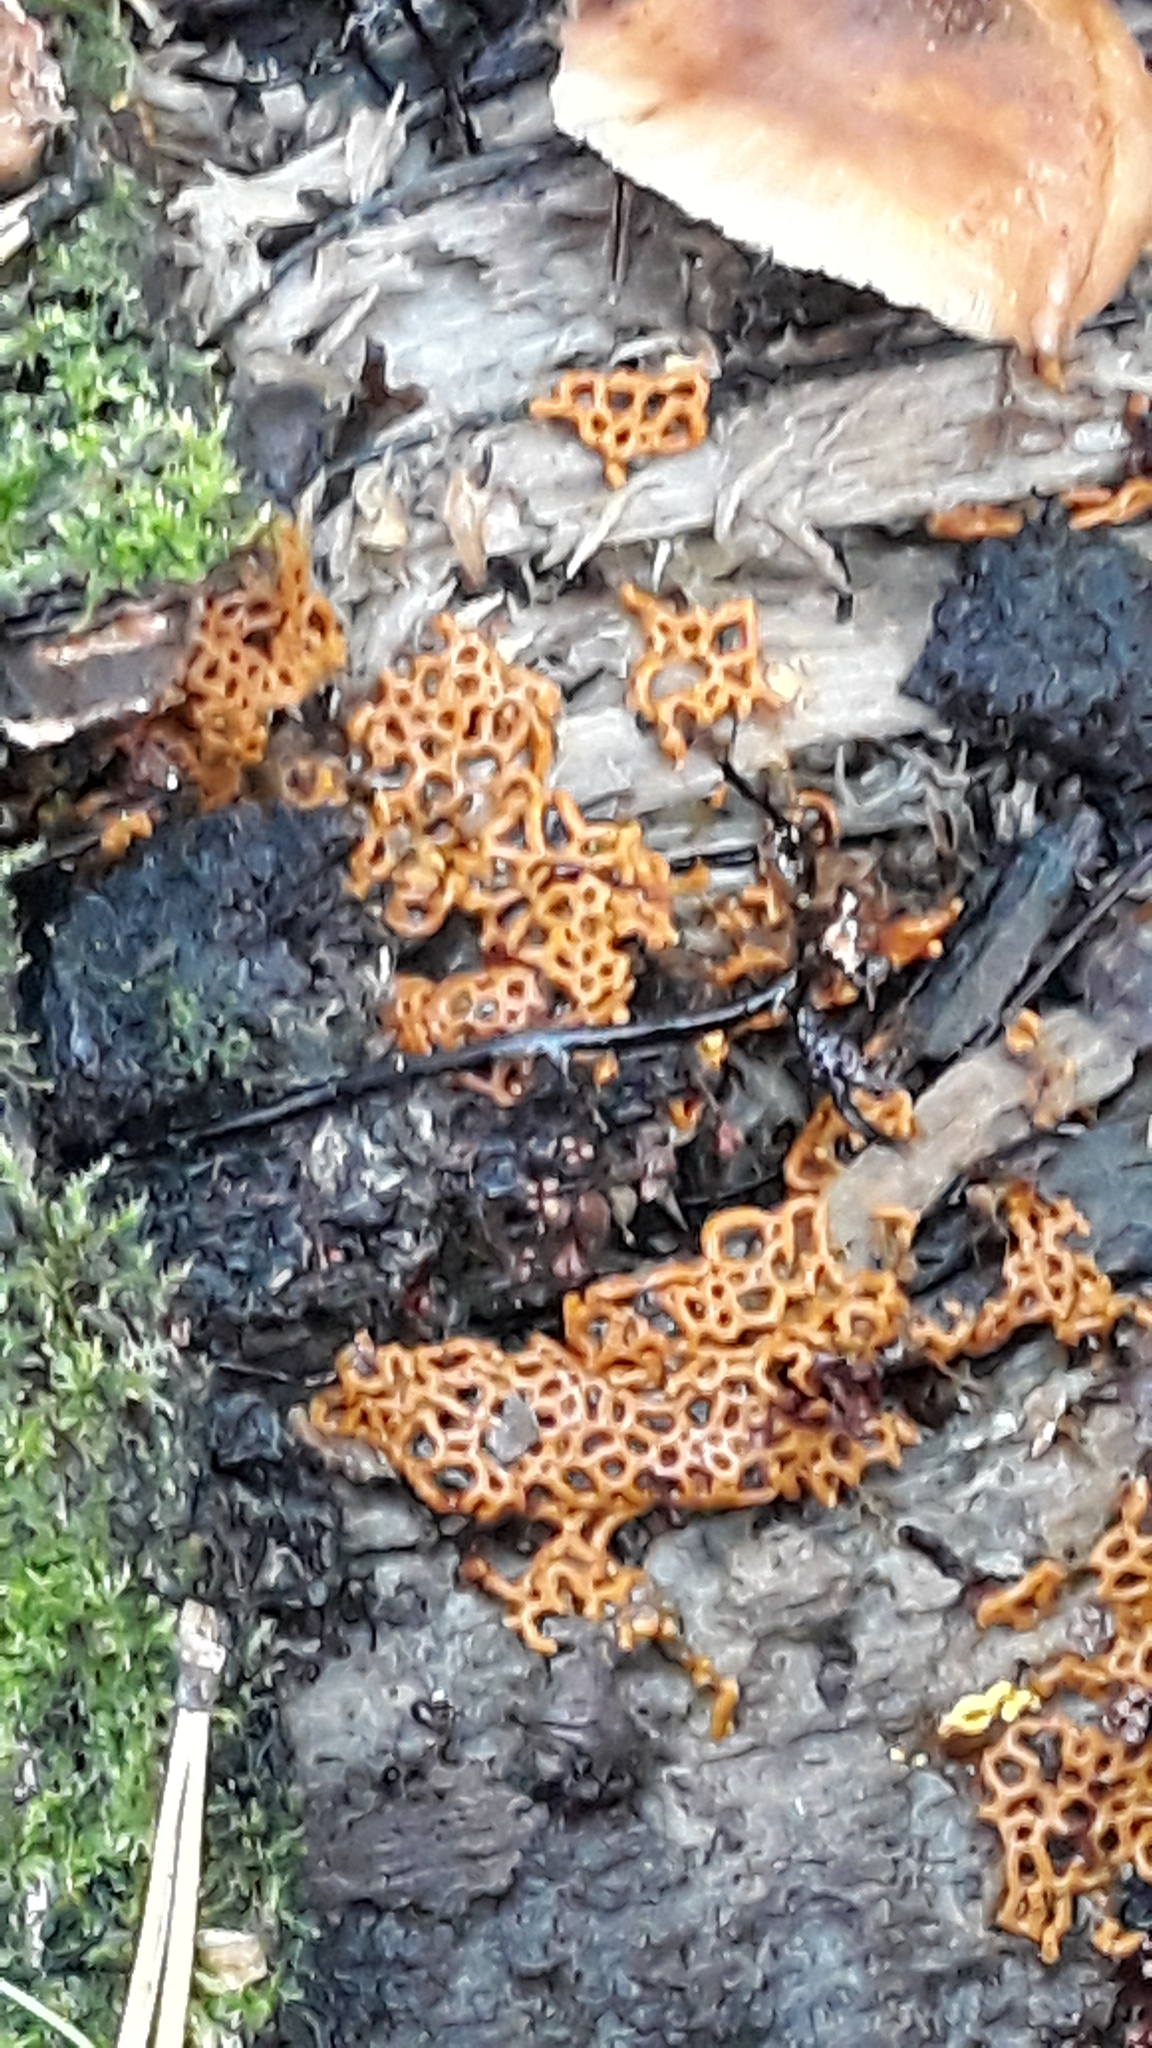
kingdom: Protozoa
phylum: Mycetozoa
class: Myxomycetes
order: Trichiales
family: Arcyriaceae
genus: Hemitrichia
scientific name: Hemitrichia serpula
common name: Pretzel slime mold
